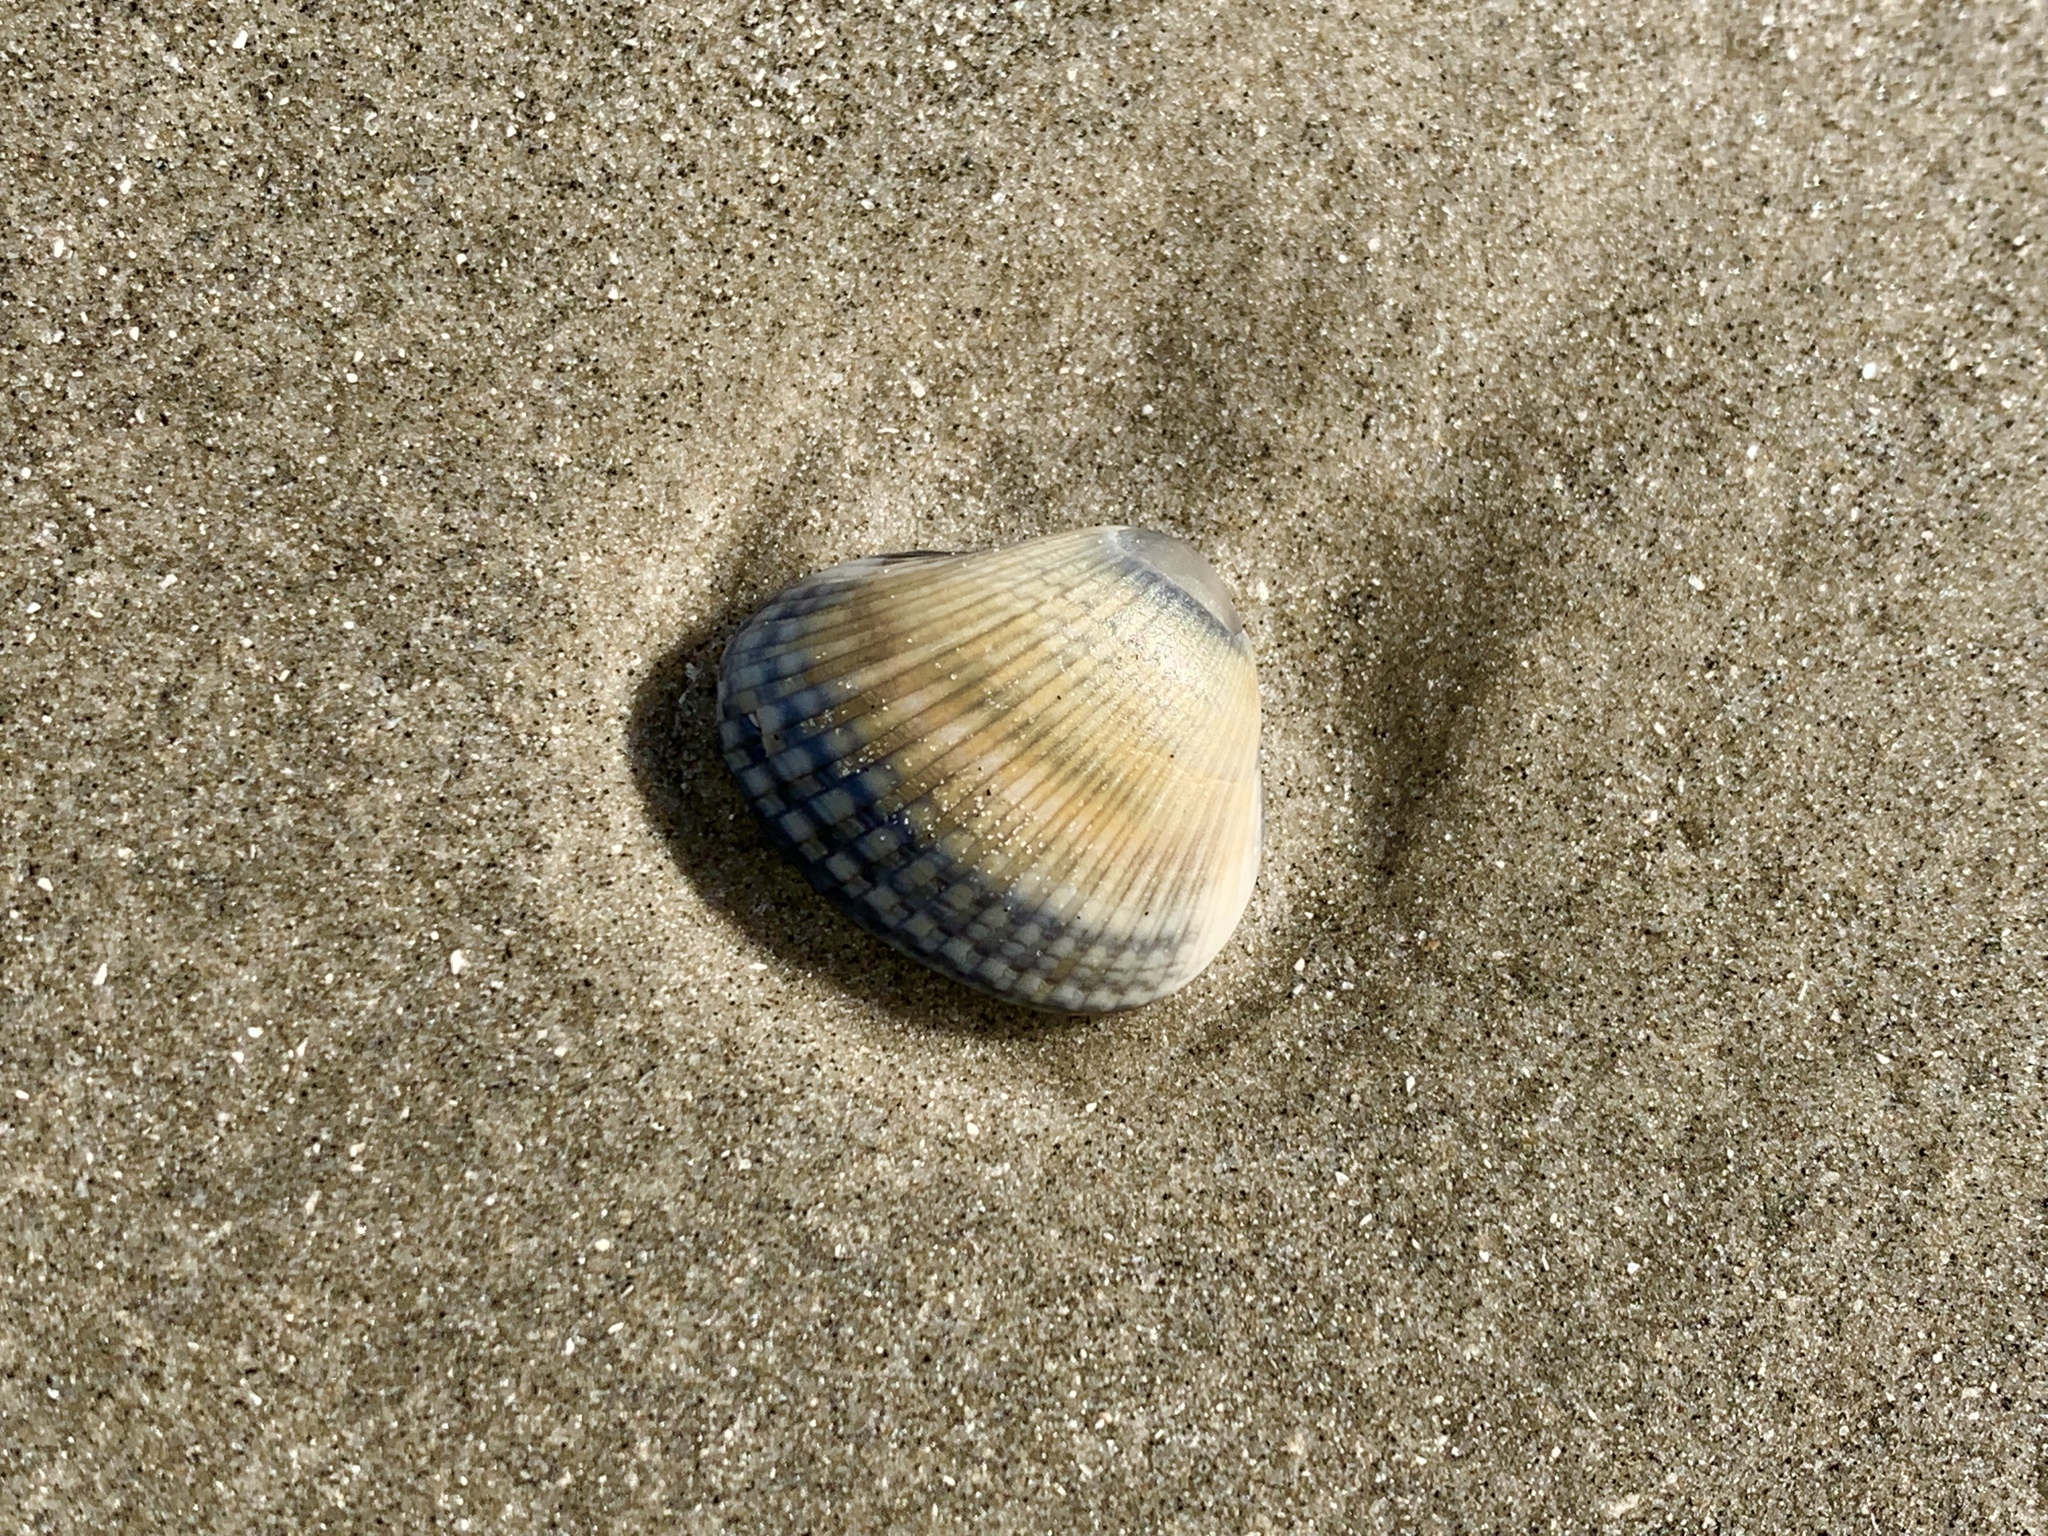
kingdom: Animalia
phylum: Mollusca
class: Bivalvia
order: Arcida
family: Noetiidae
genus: Noetia
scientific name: Noetia ponderosa
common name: Ponderous ark
